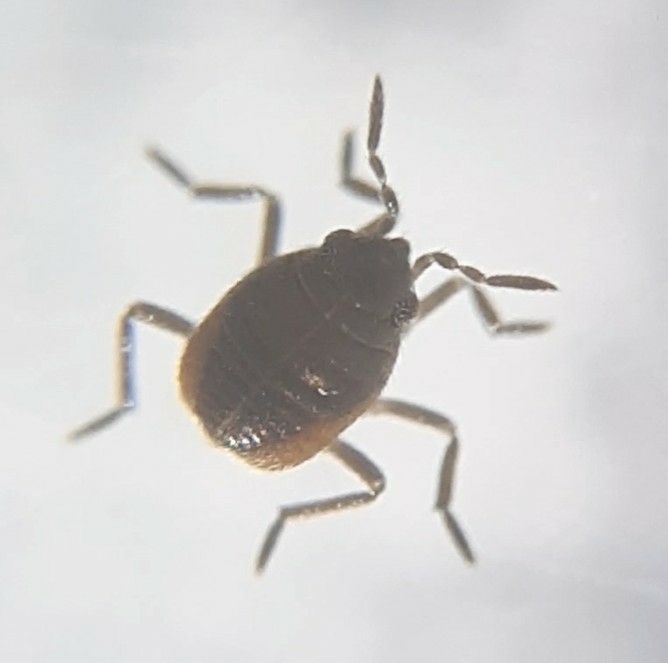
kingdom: Animalia
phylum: Arthropoda
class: Insecta
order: Hemiptera
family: Veliidae
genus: Microvelia
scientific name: Microvelia
